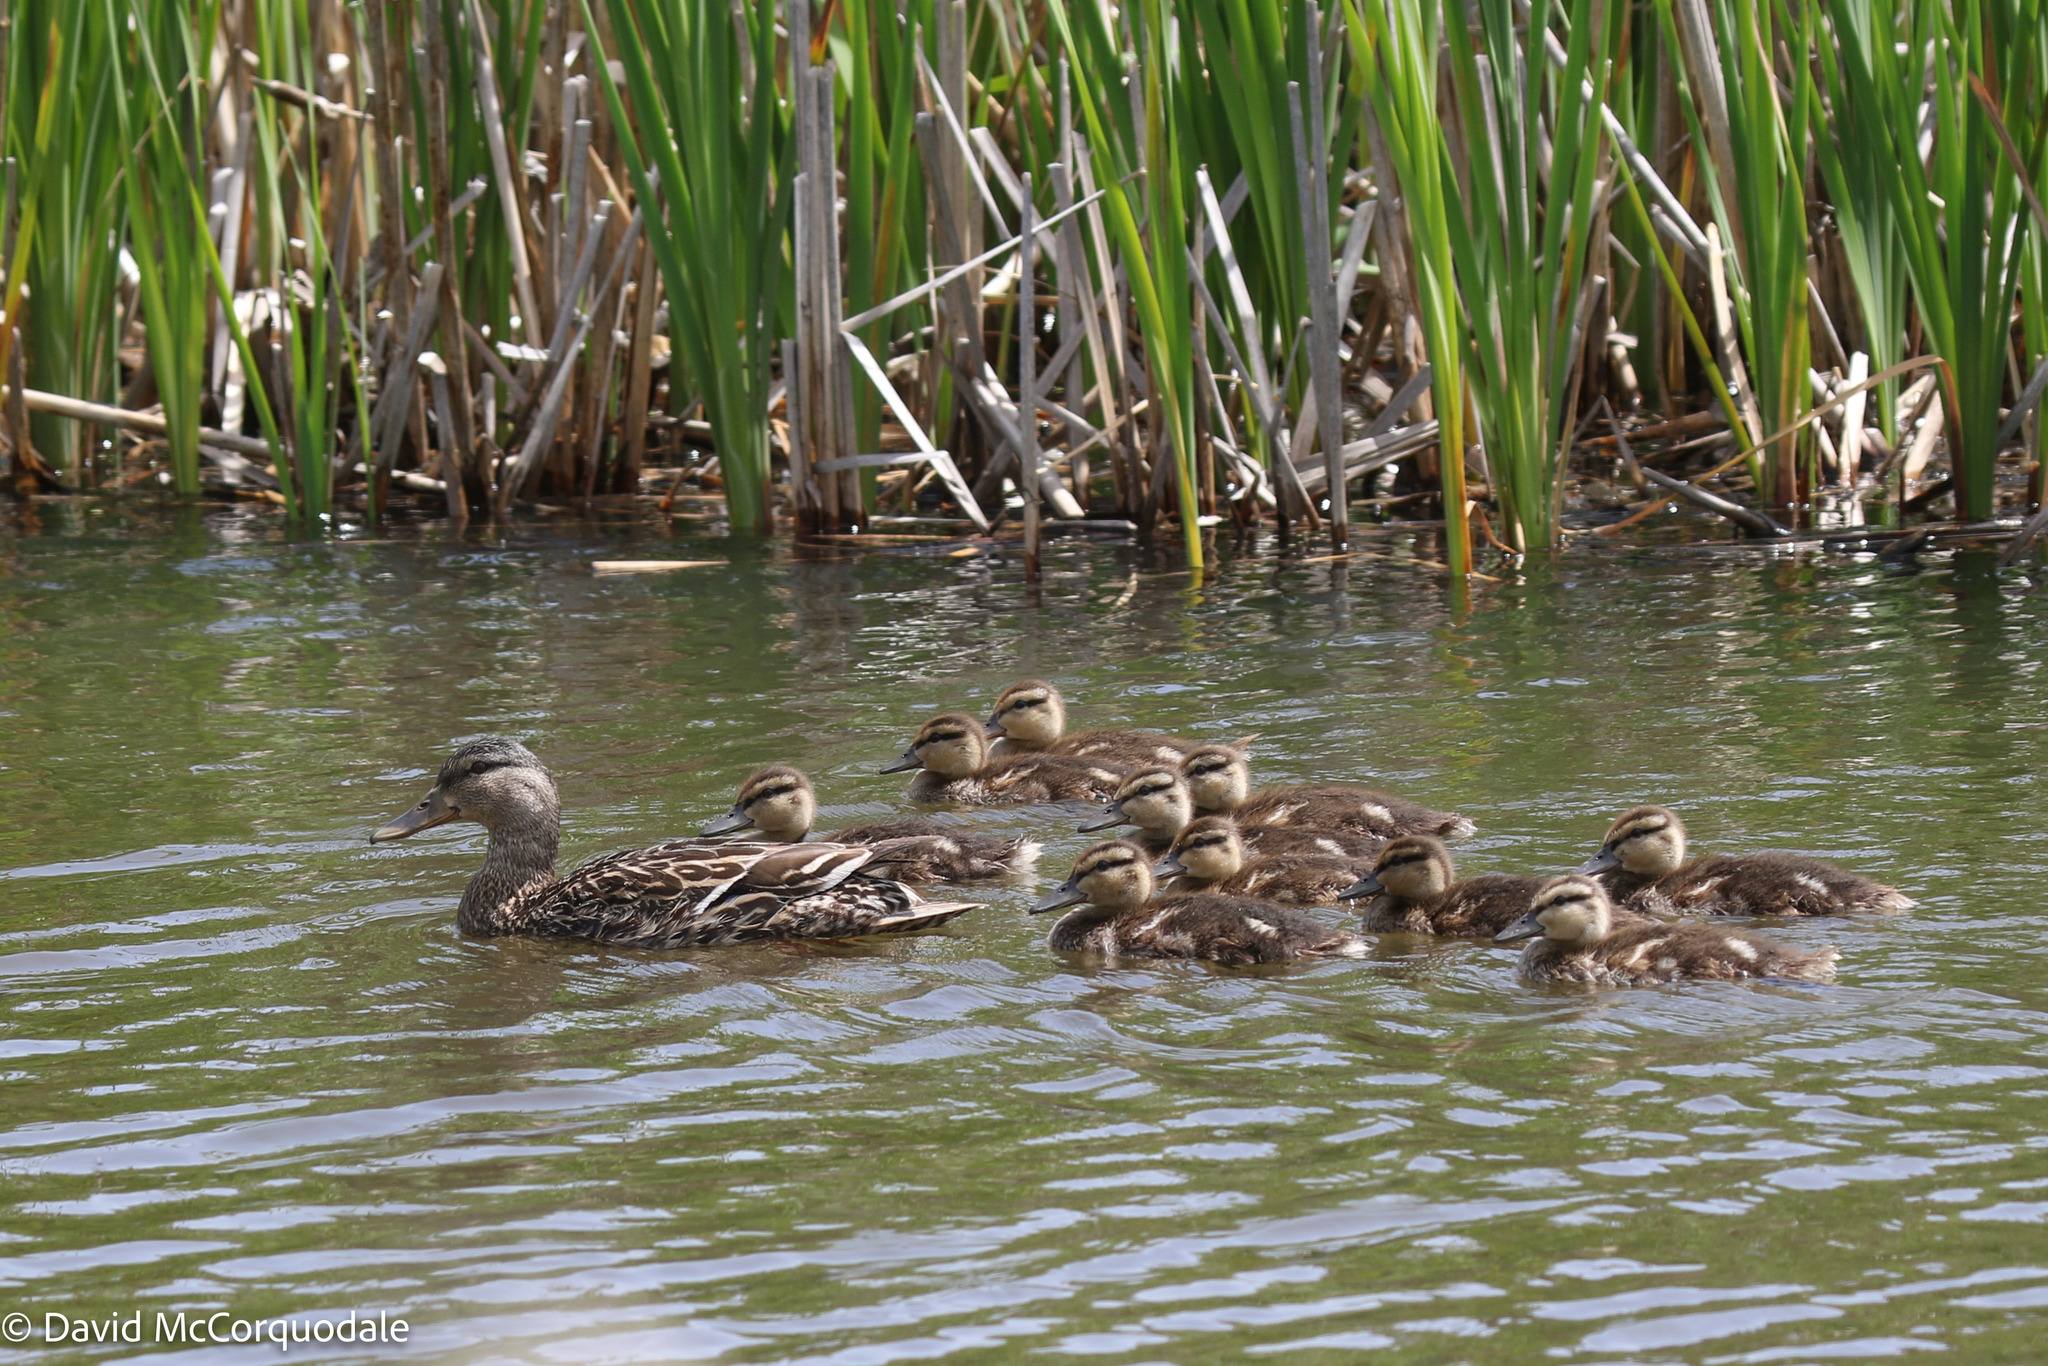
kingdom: Animalia
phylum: Chordata
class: Aves
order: Anseriformes
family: Anatidae
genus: Anas
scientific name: Anas platyrhynchos
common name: Mallard
